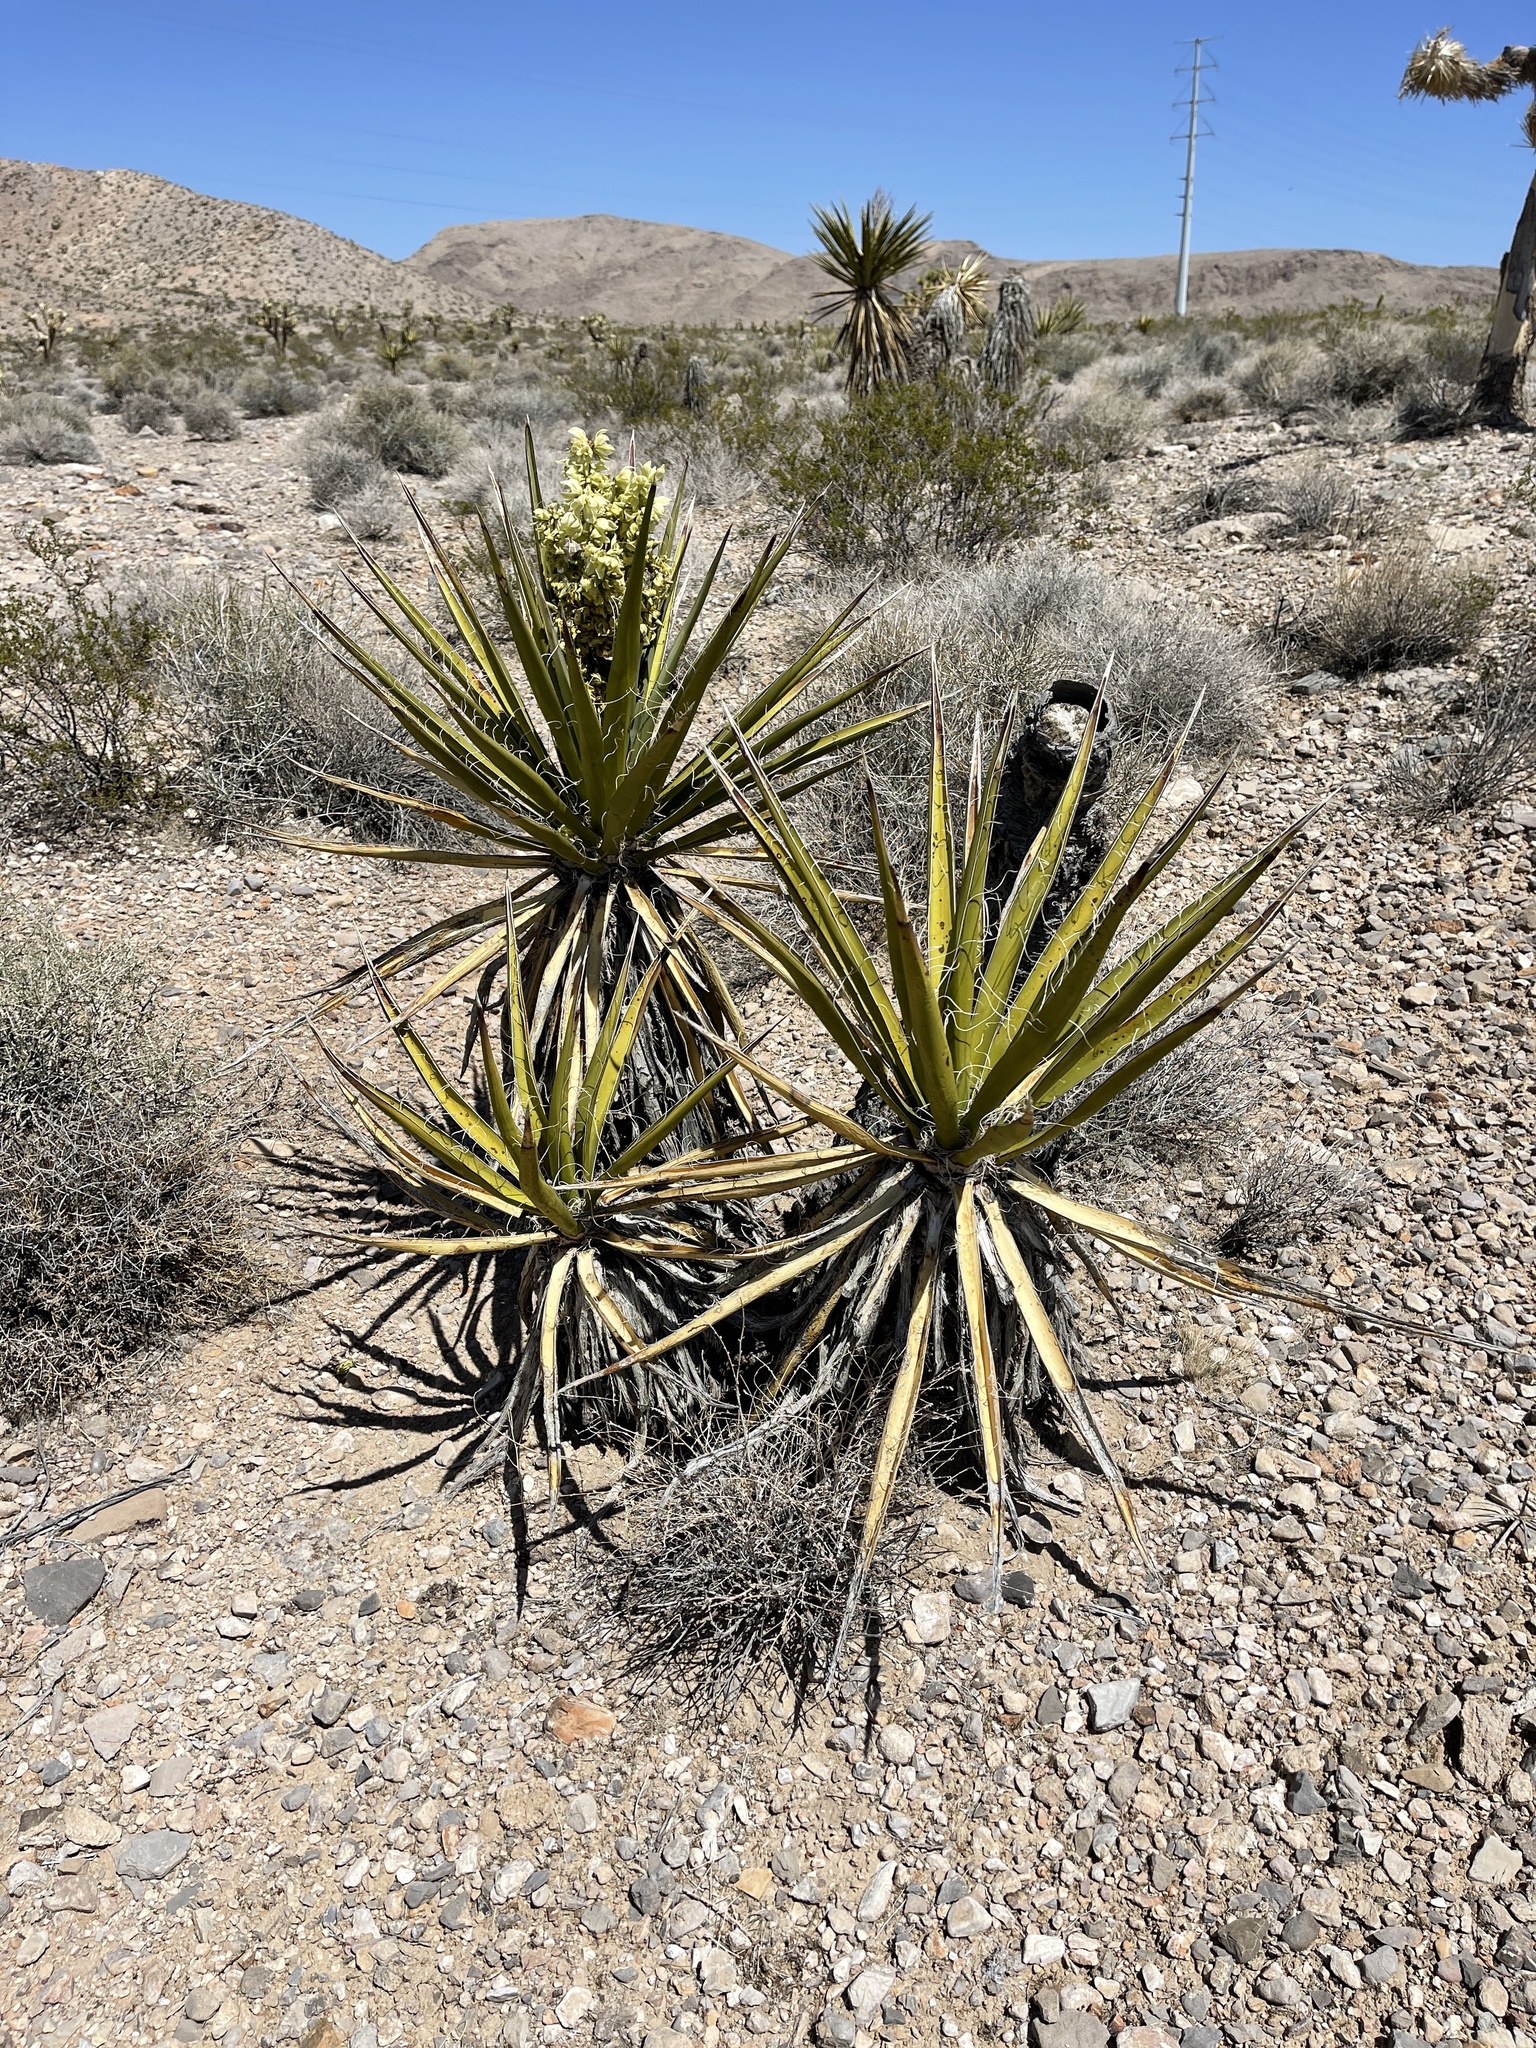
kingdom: Plantae
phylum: Tracheophyta
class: Liliopsida
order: Asparagales
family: Asparagaceae
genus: Yucca
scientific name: Yucca schidigera
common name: Mojave yucca
